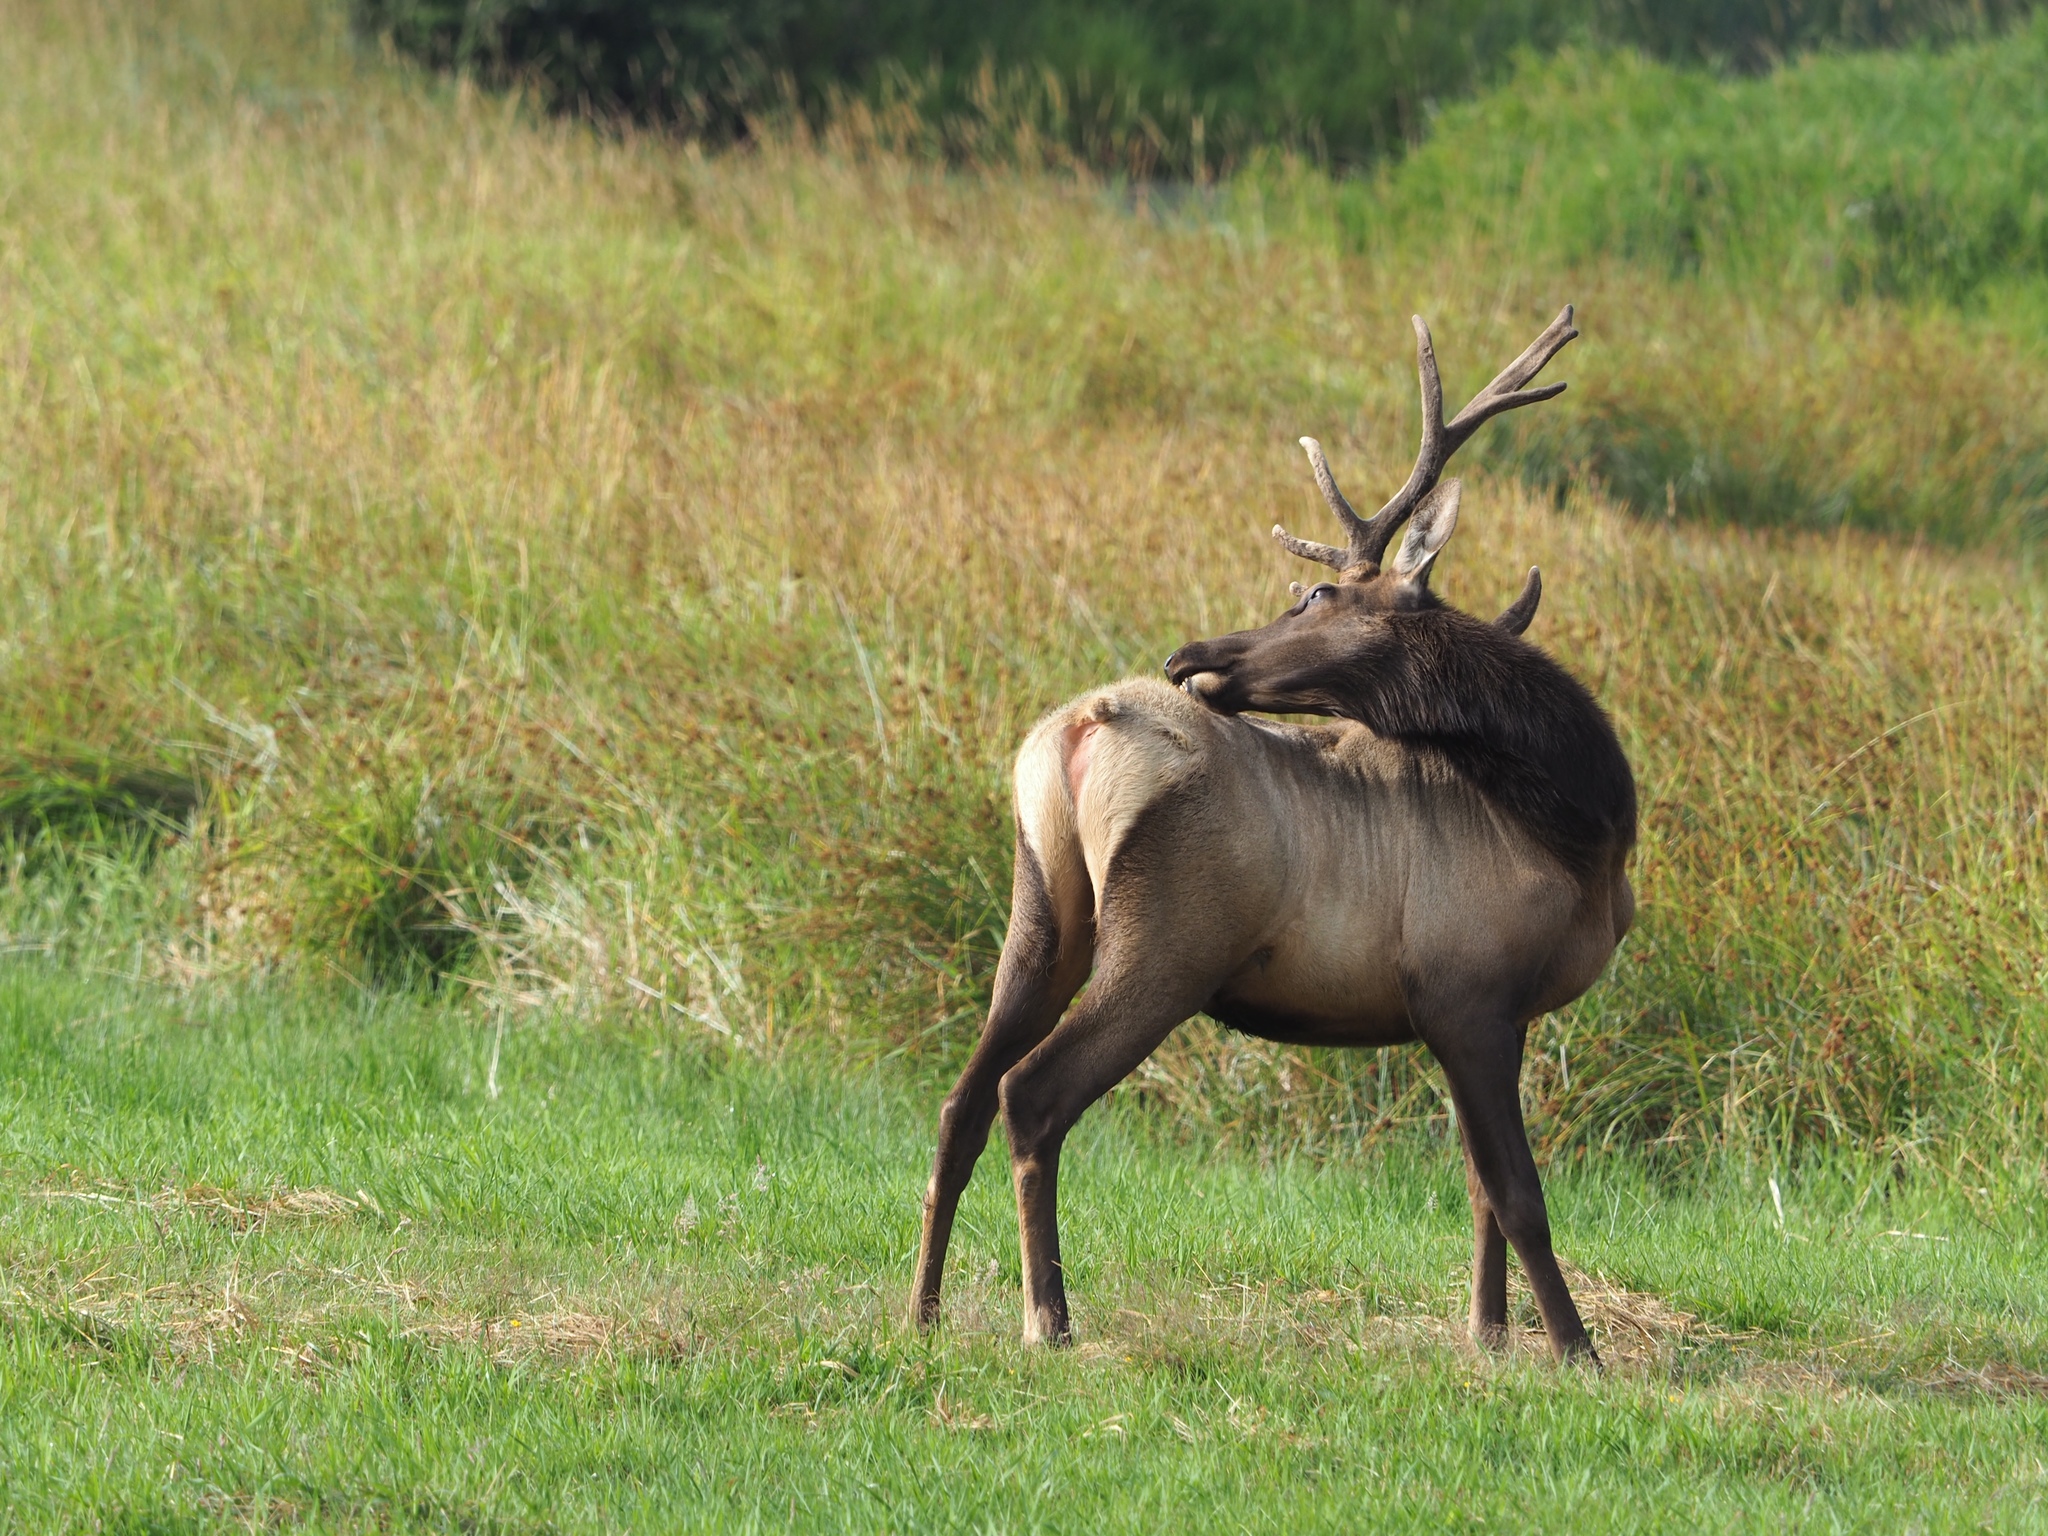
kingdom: Animalia
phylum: Chordata
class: Mammalia
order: Artiodactyla
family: Cervidae
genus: Cervus
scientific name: Cervus elaphus
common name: Red deer
